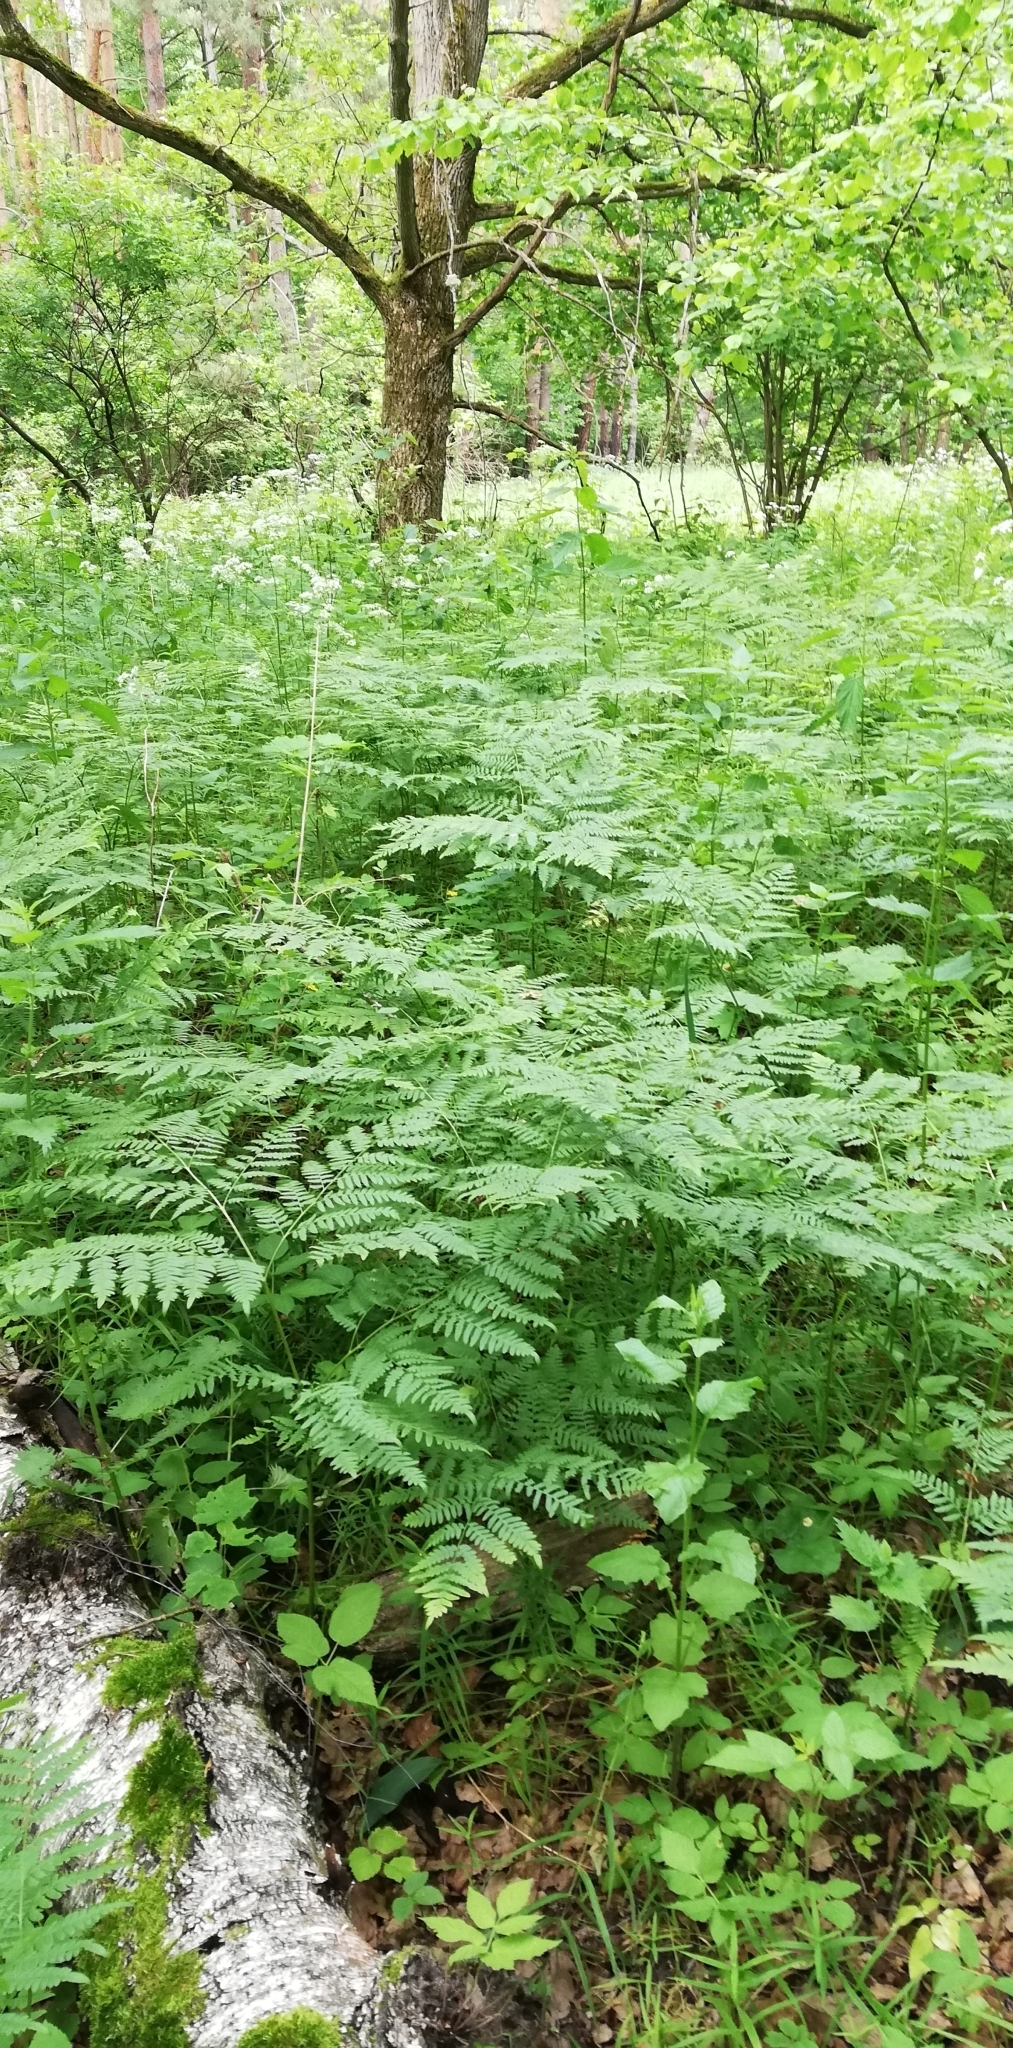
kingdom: Plantae
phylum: Tracheophyta
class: Polypodiopsida
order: Polypodiales
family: Dennstaedtiaceae
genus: Pteridium
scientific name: Pteridium aquilinum
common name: Bracken
